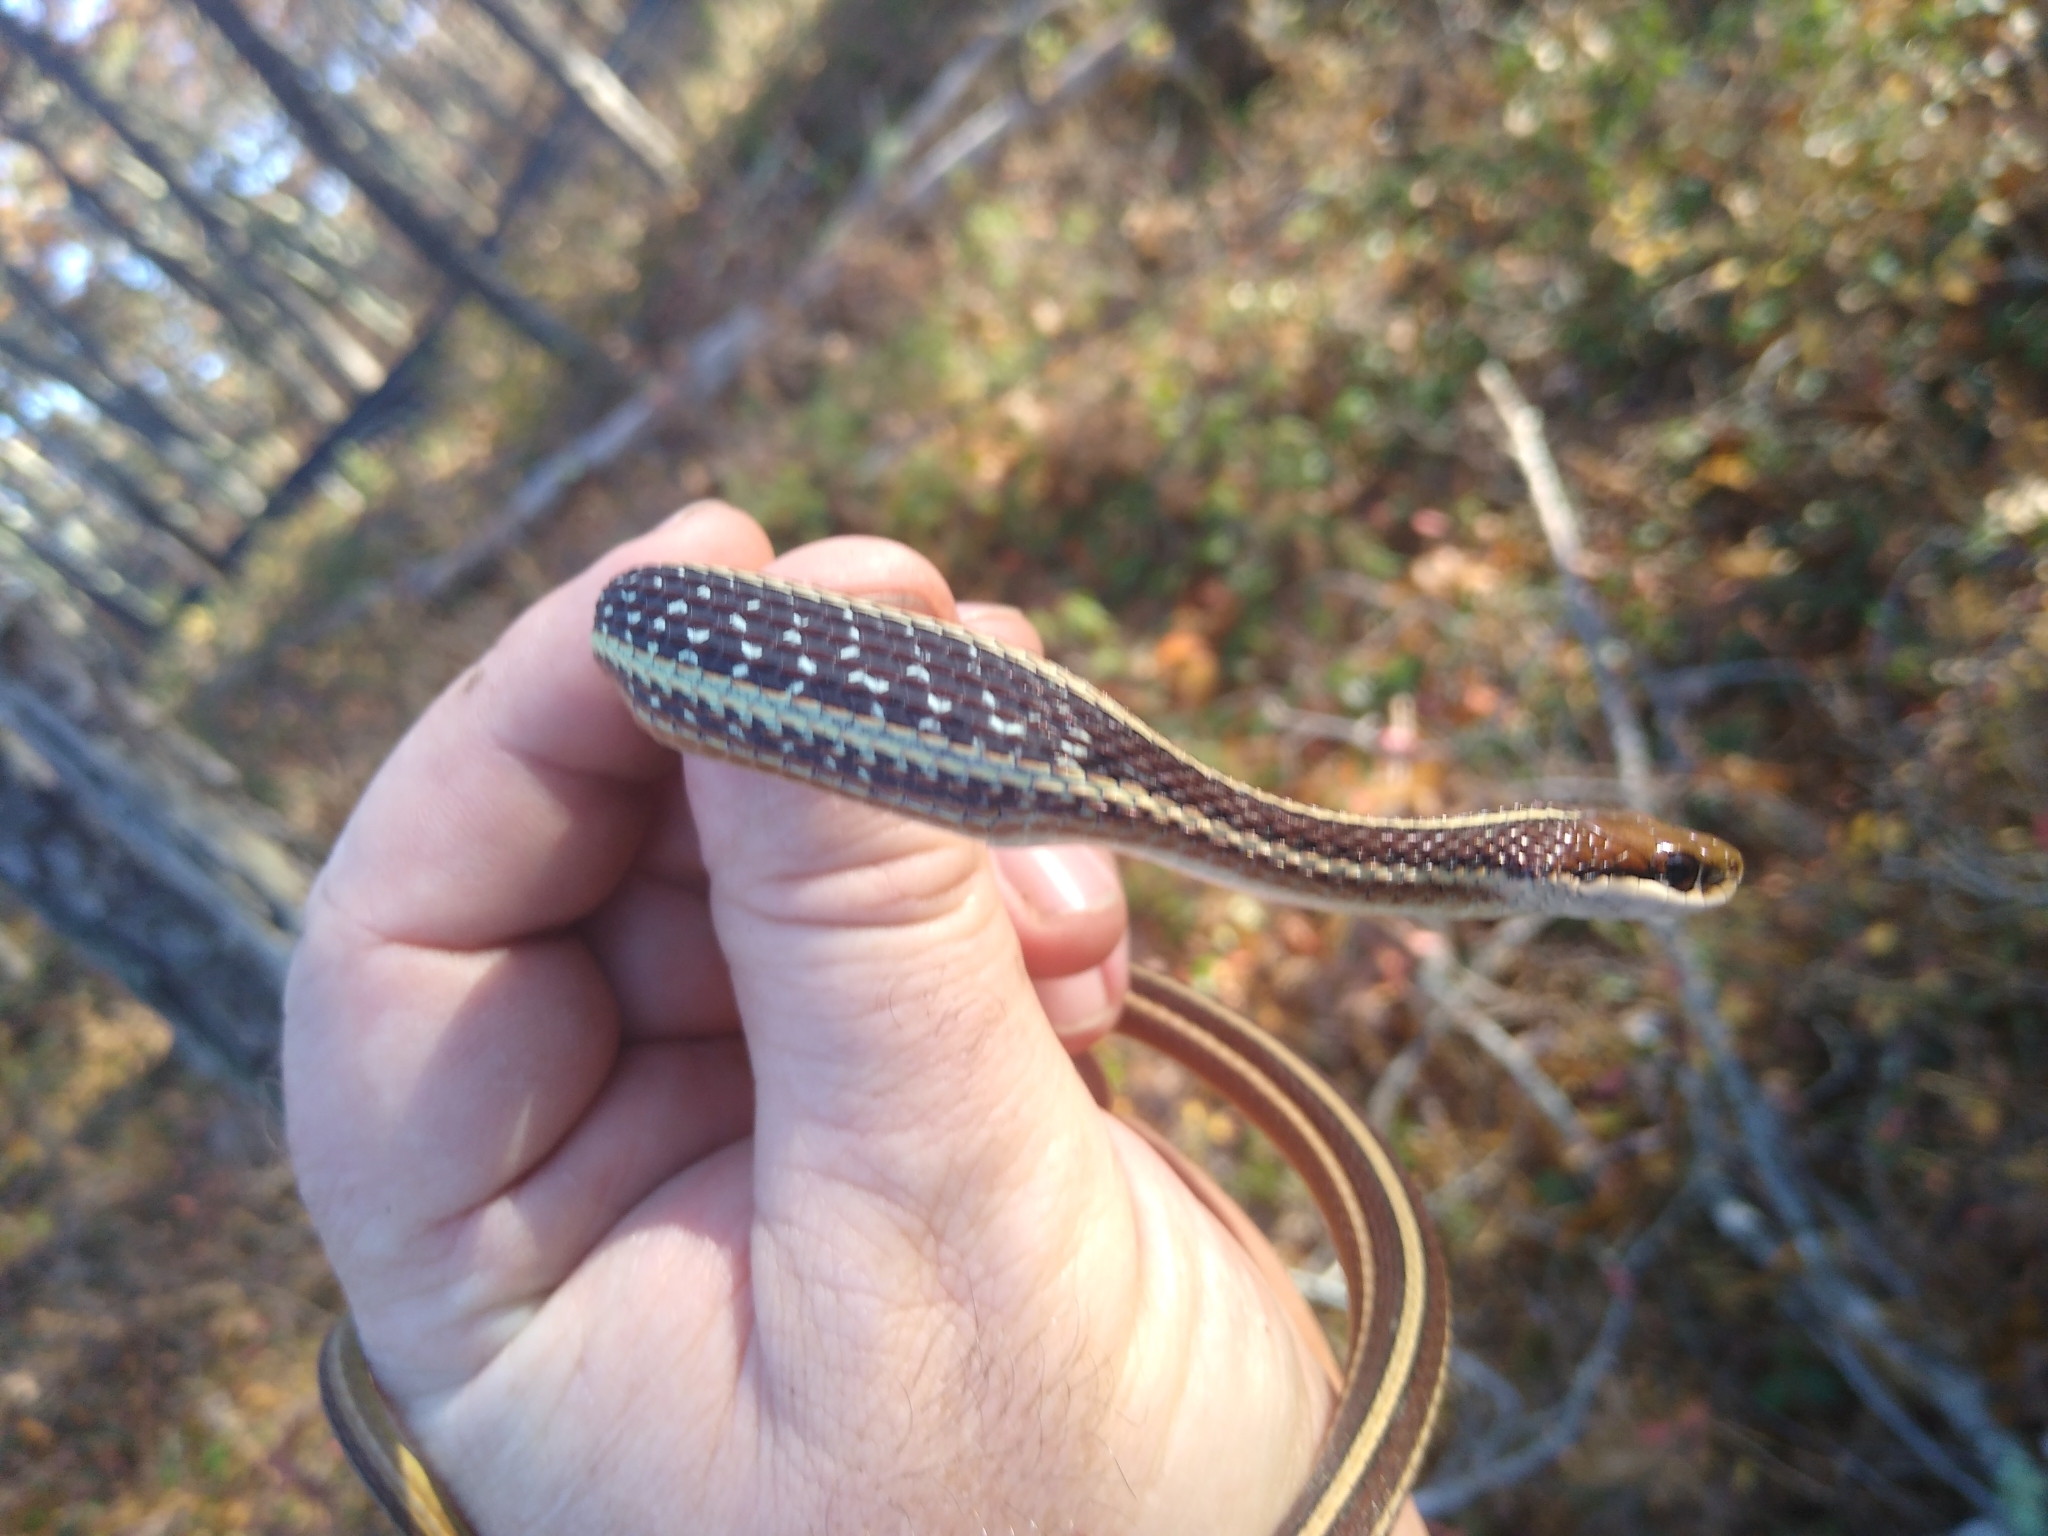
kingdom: Animalia
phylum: Chordata
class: Squamata
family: Colubridae
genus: Thamnophis
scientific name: Thamnophis saurita
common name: Eastern ribbonsnake
